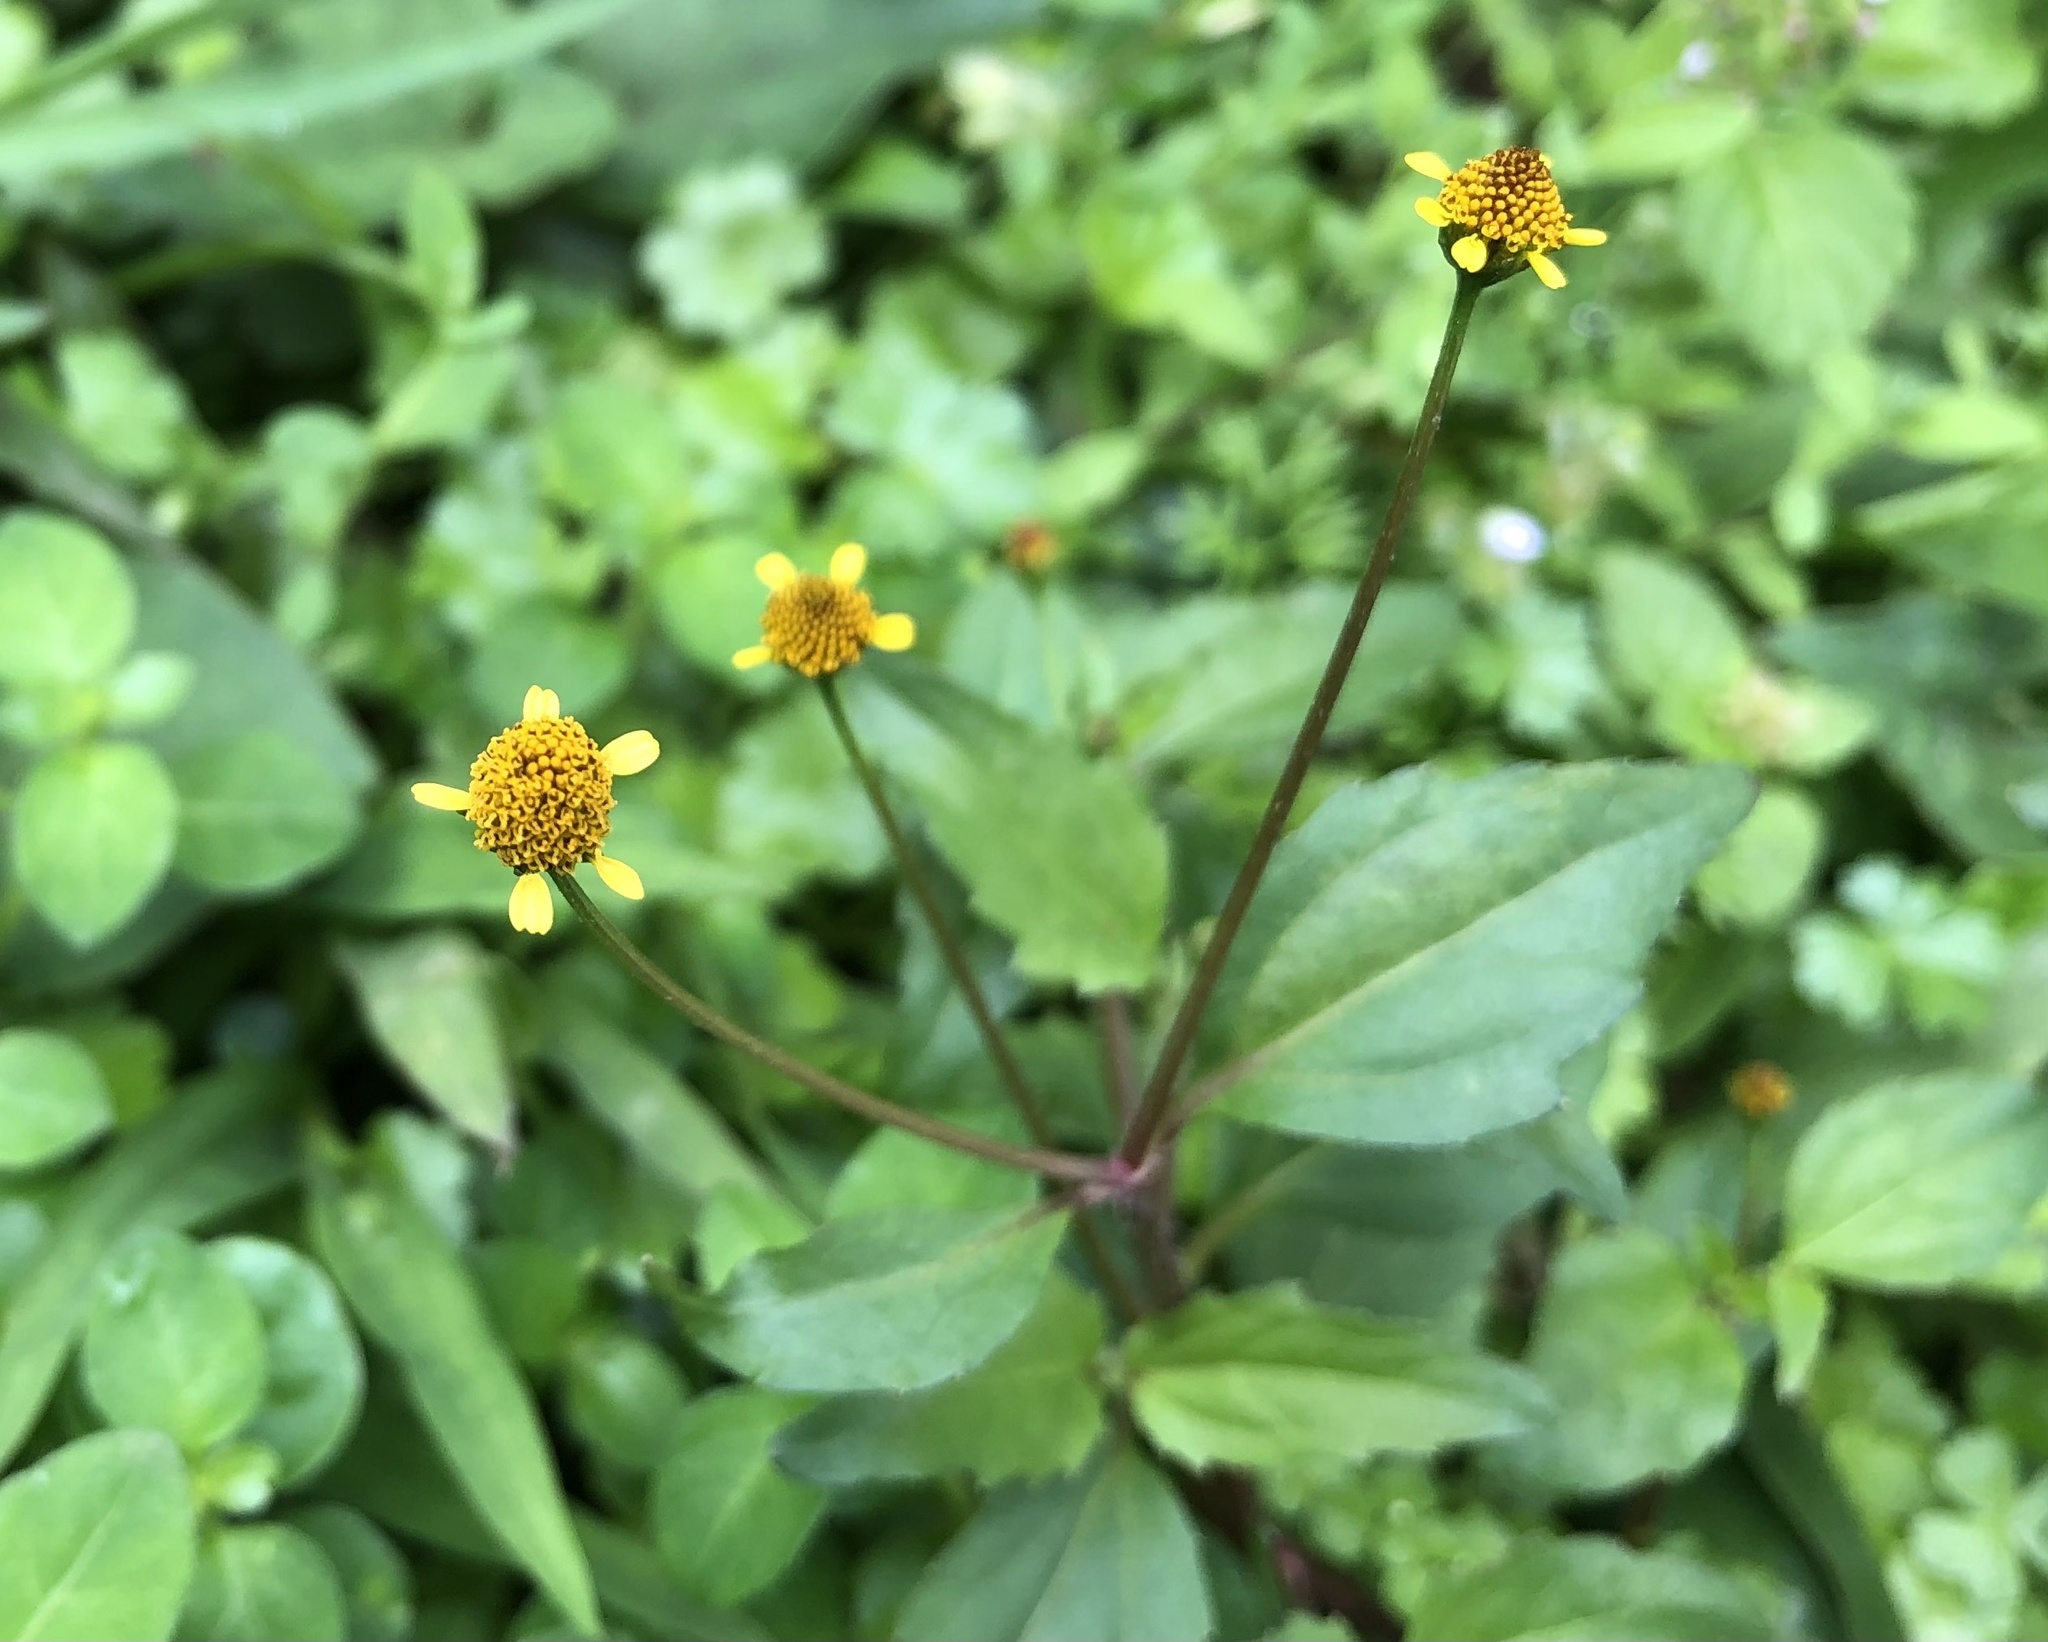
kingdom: Plantae
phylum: Tracheophyta
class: Magnoliopsida
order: Asterales
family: Asteraceae
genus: Acmella
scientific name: Acmella uliginosa
